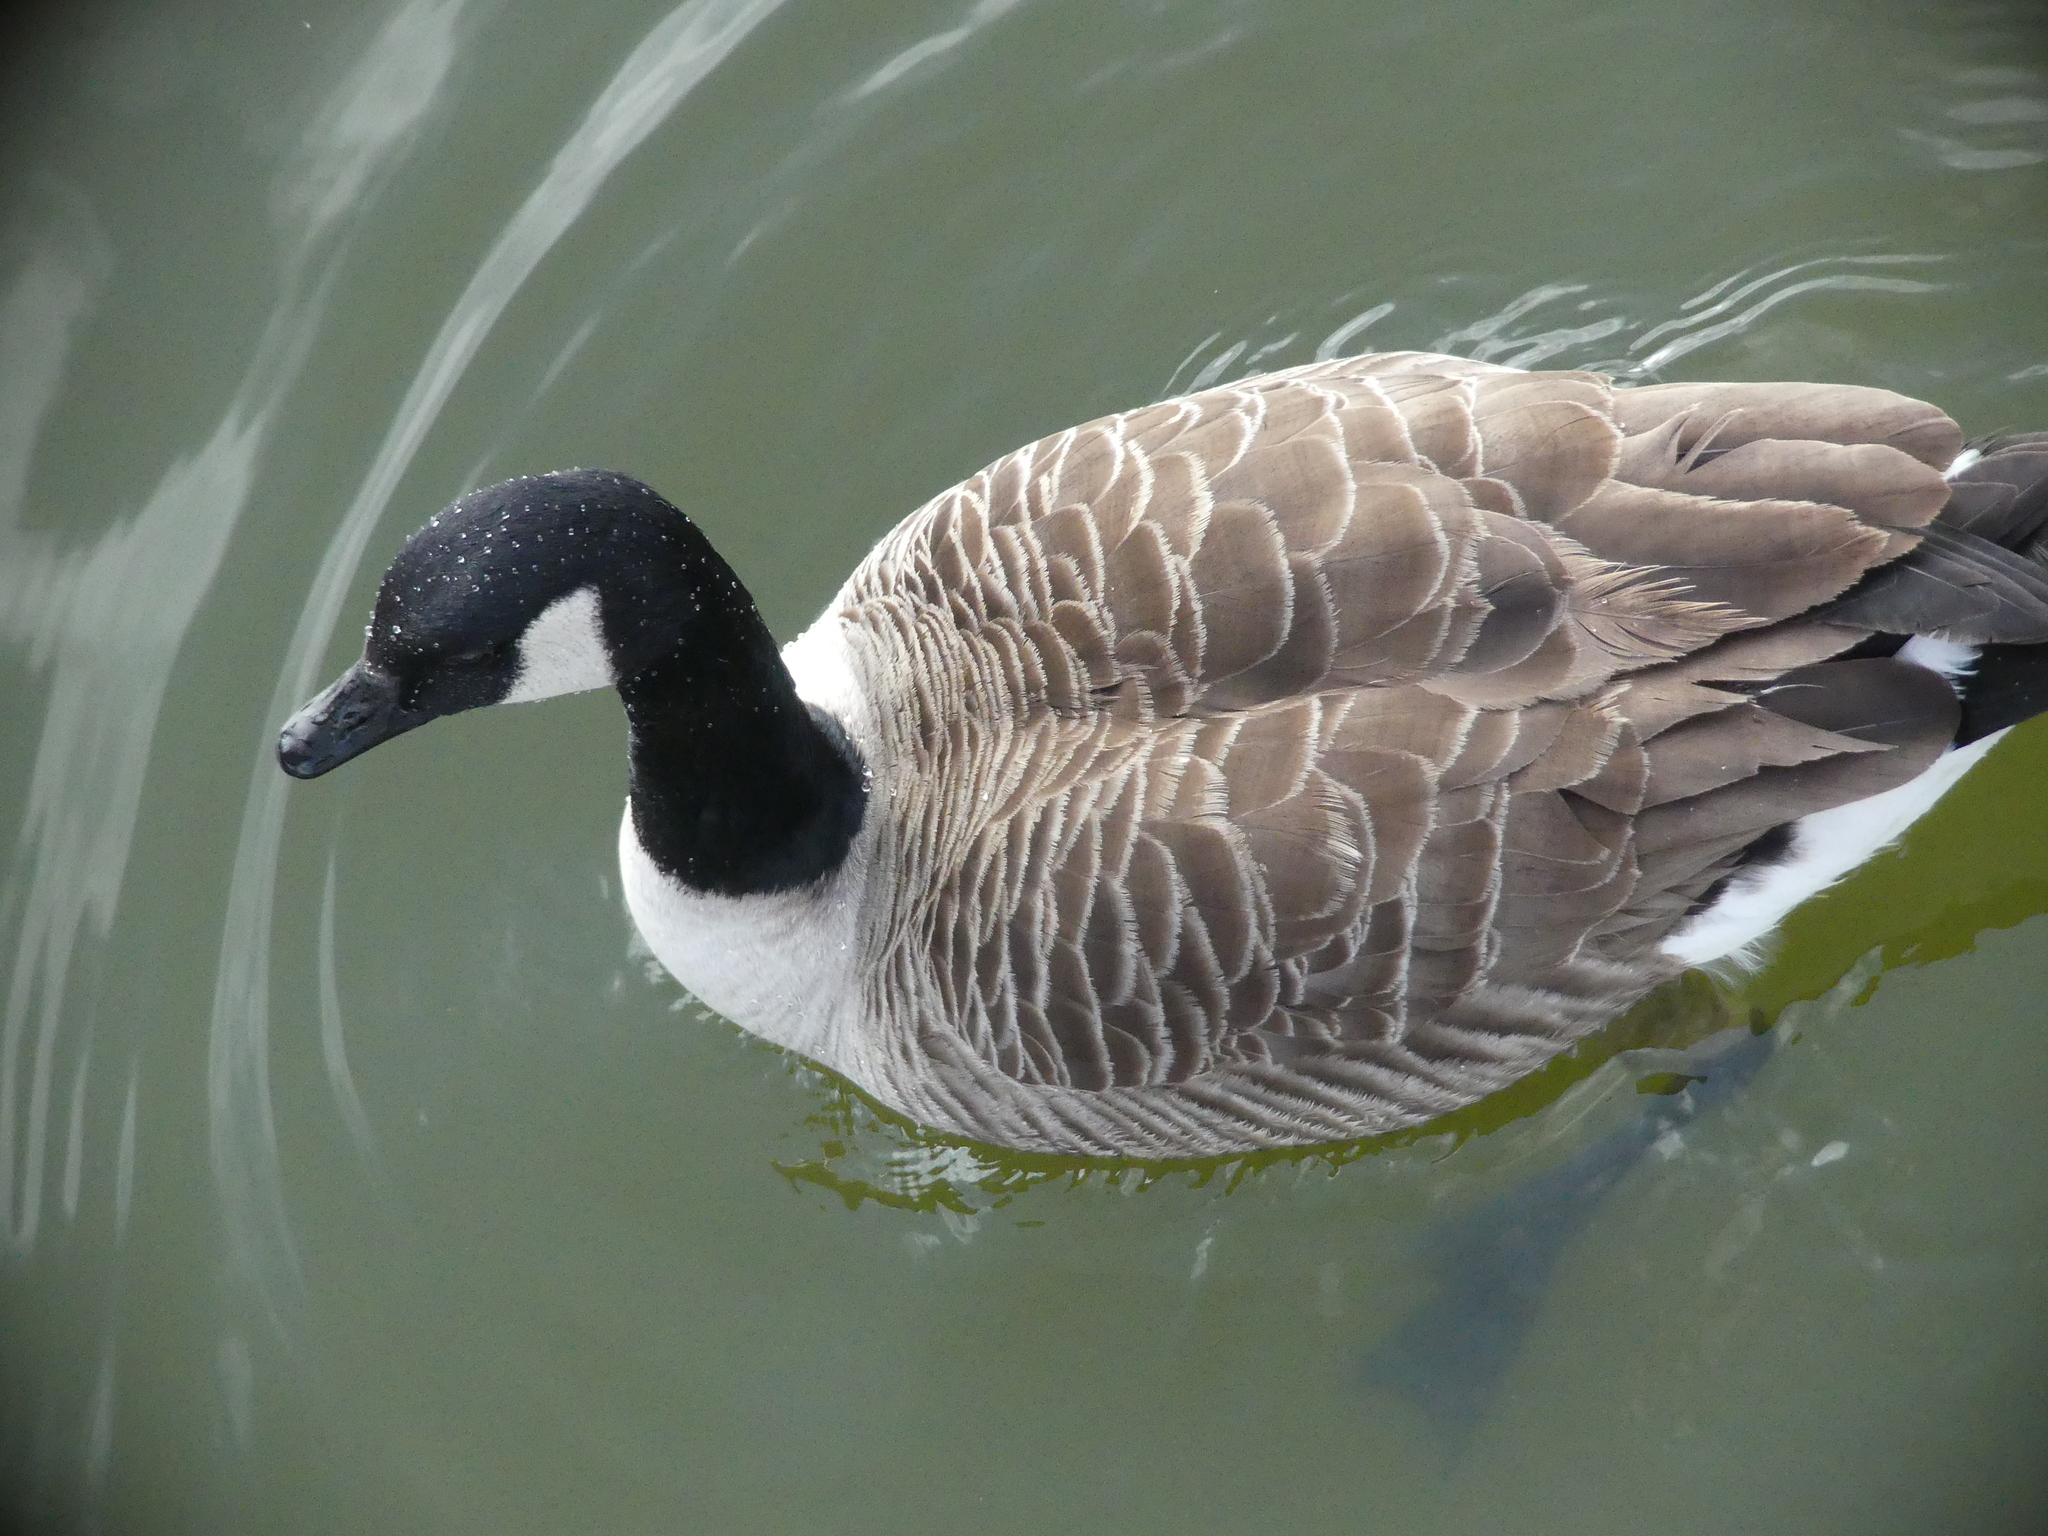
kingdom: Animalia
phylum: Chordata
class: Aves
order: Anseriformes
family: Anatidae
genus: Branta
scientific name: Branta canadensis
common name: Canada goose
